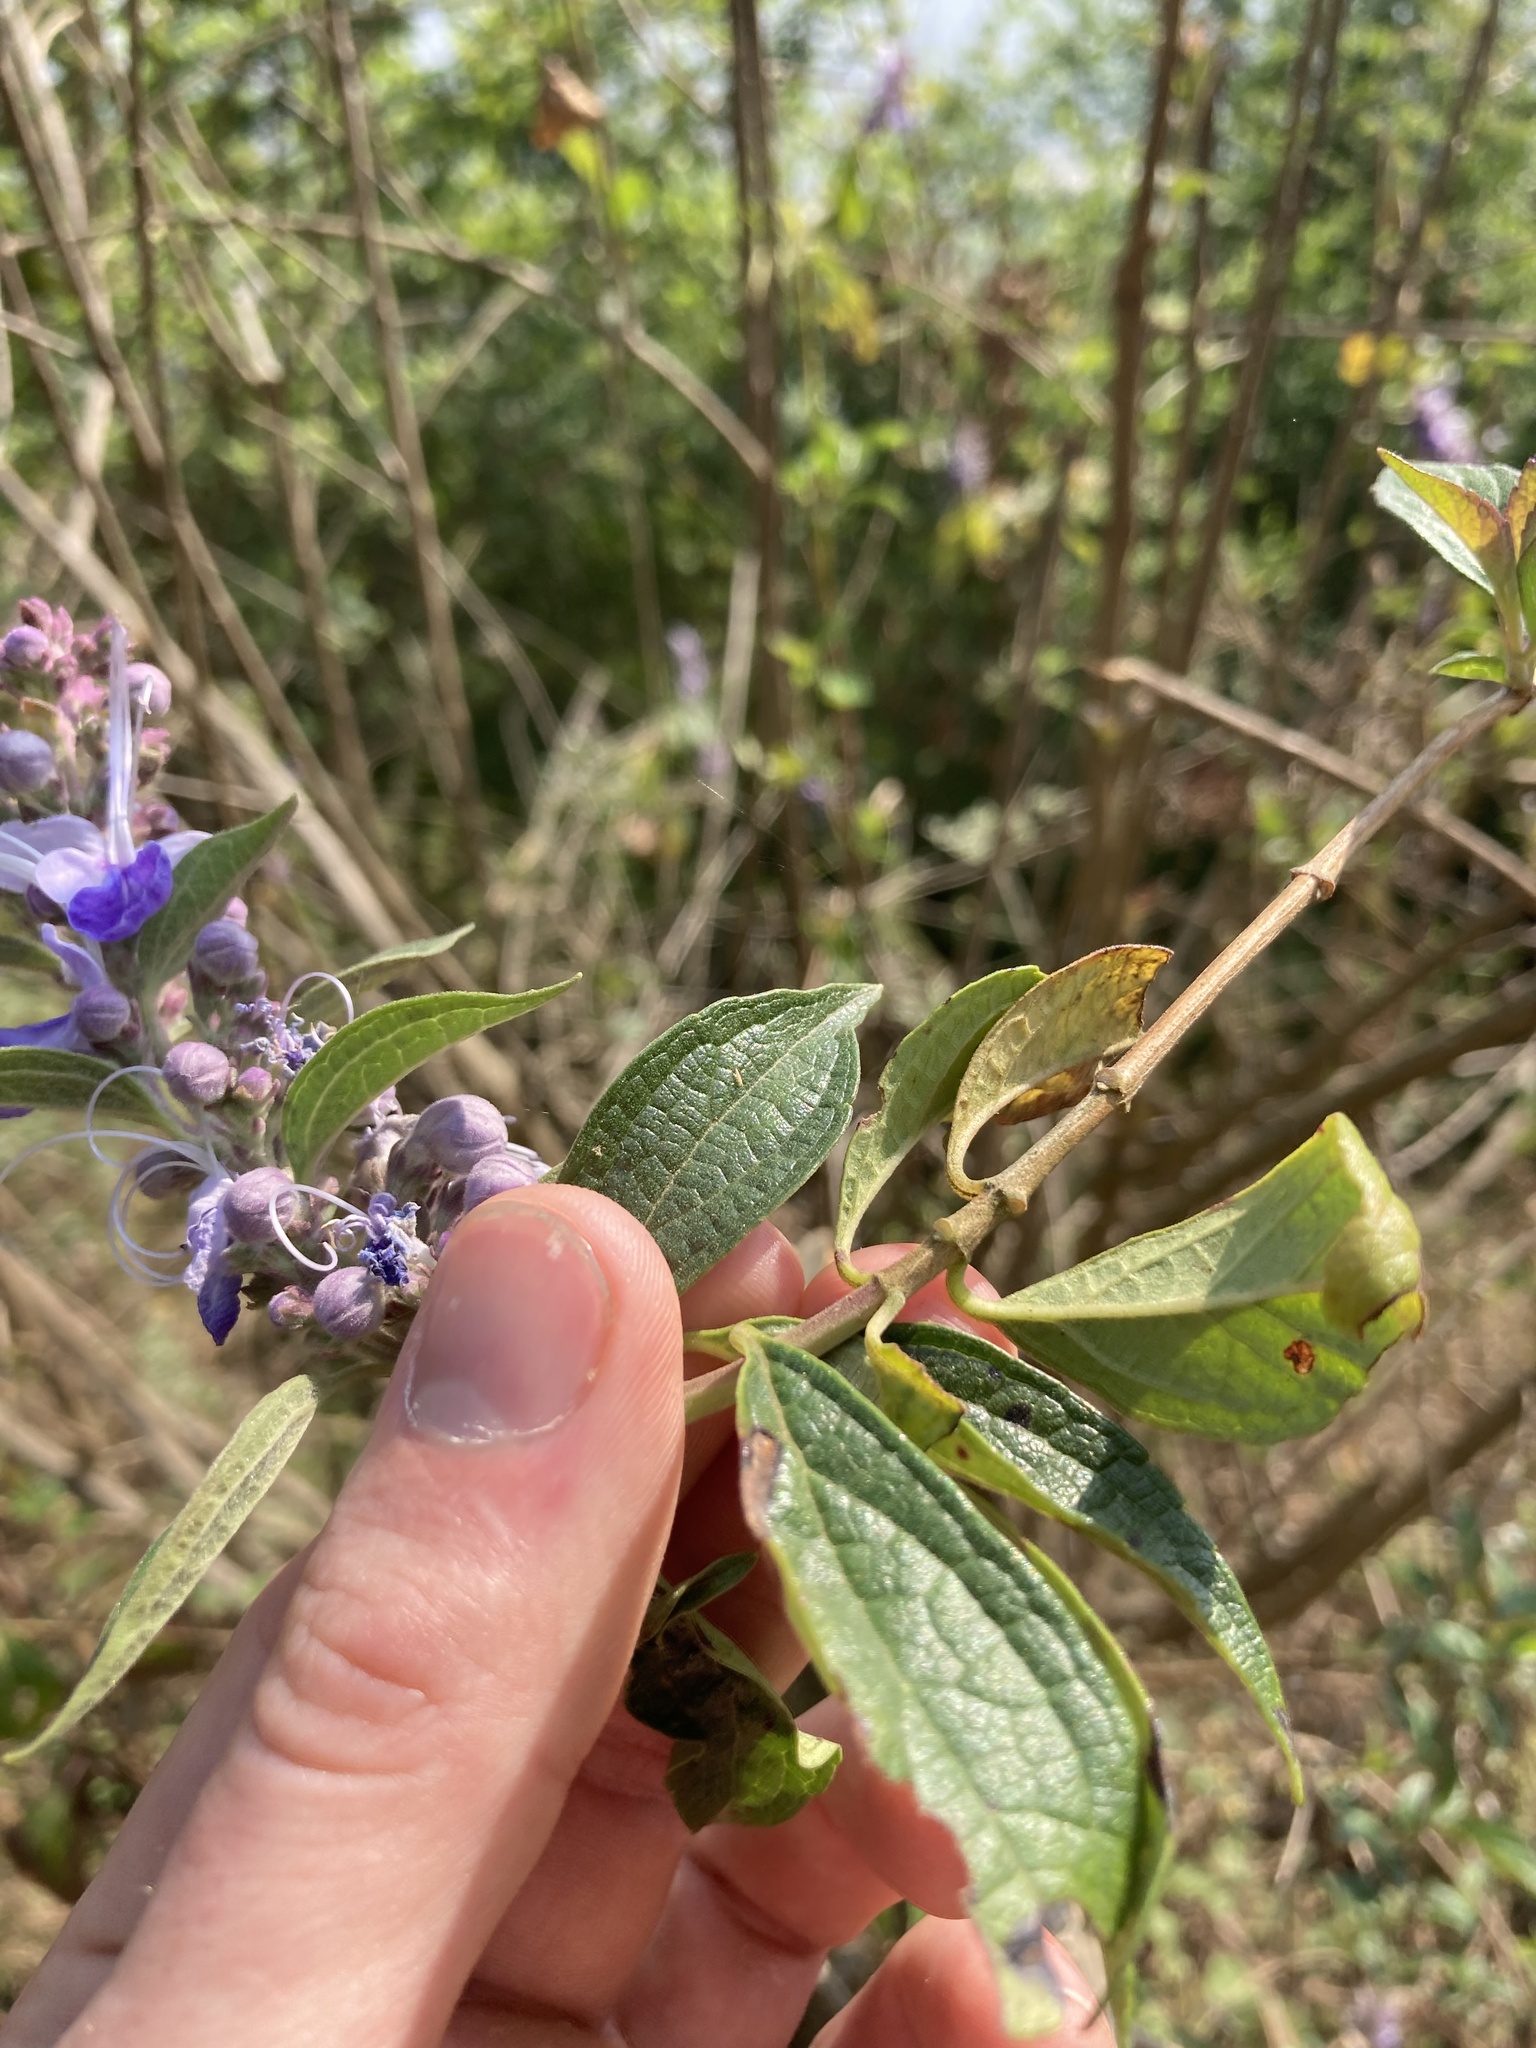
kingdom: Plantae
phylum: Tracheophyta
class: Magnoliopsida
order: Lamiales
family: Lamiaceae
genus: Pseudocaryopteris
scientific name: Pseudocaryopteris bicolor
